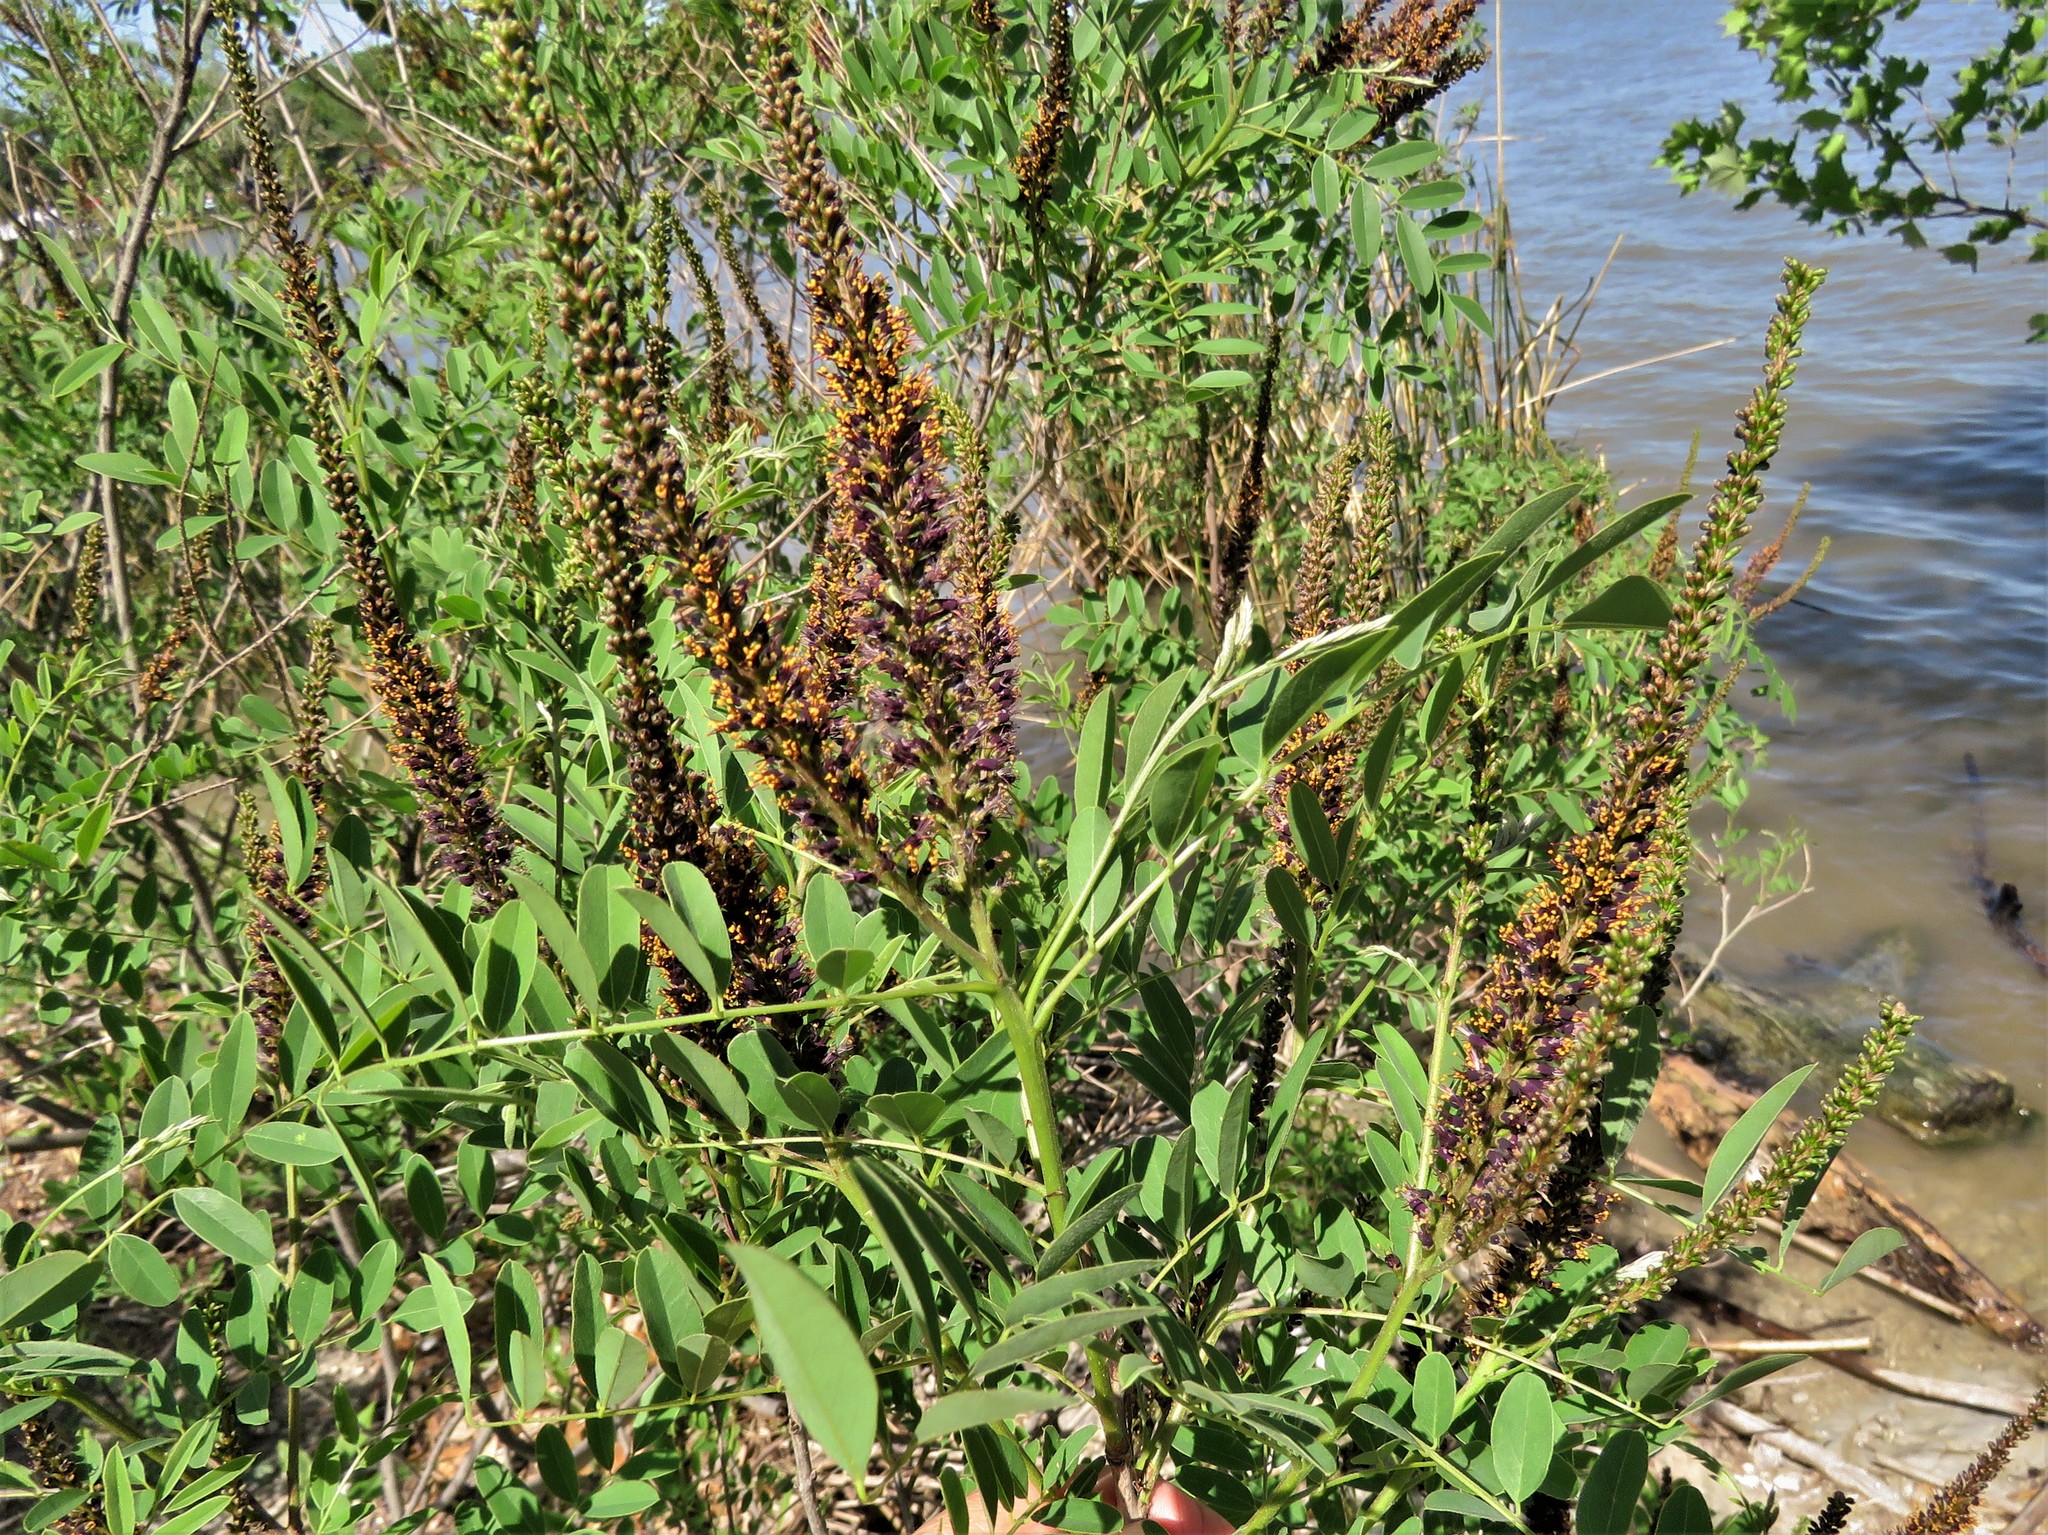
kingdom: Plantae
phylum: Tracheophyta
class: Magnoliopsida
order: Fabales
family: Fabaceae
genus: Amorpha
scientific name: Amorpha fruticosa
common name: False indigo
